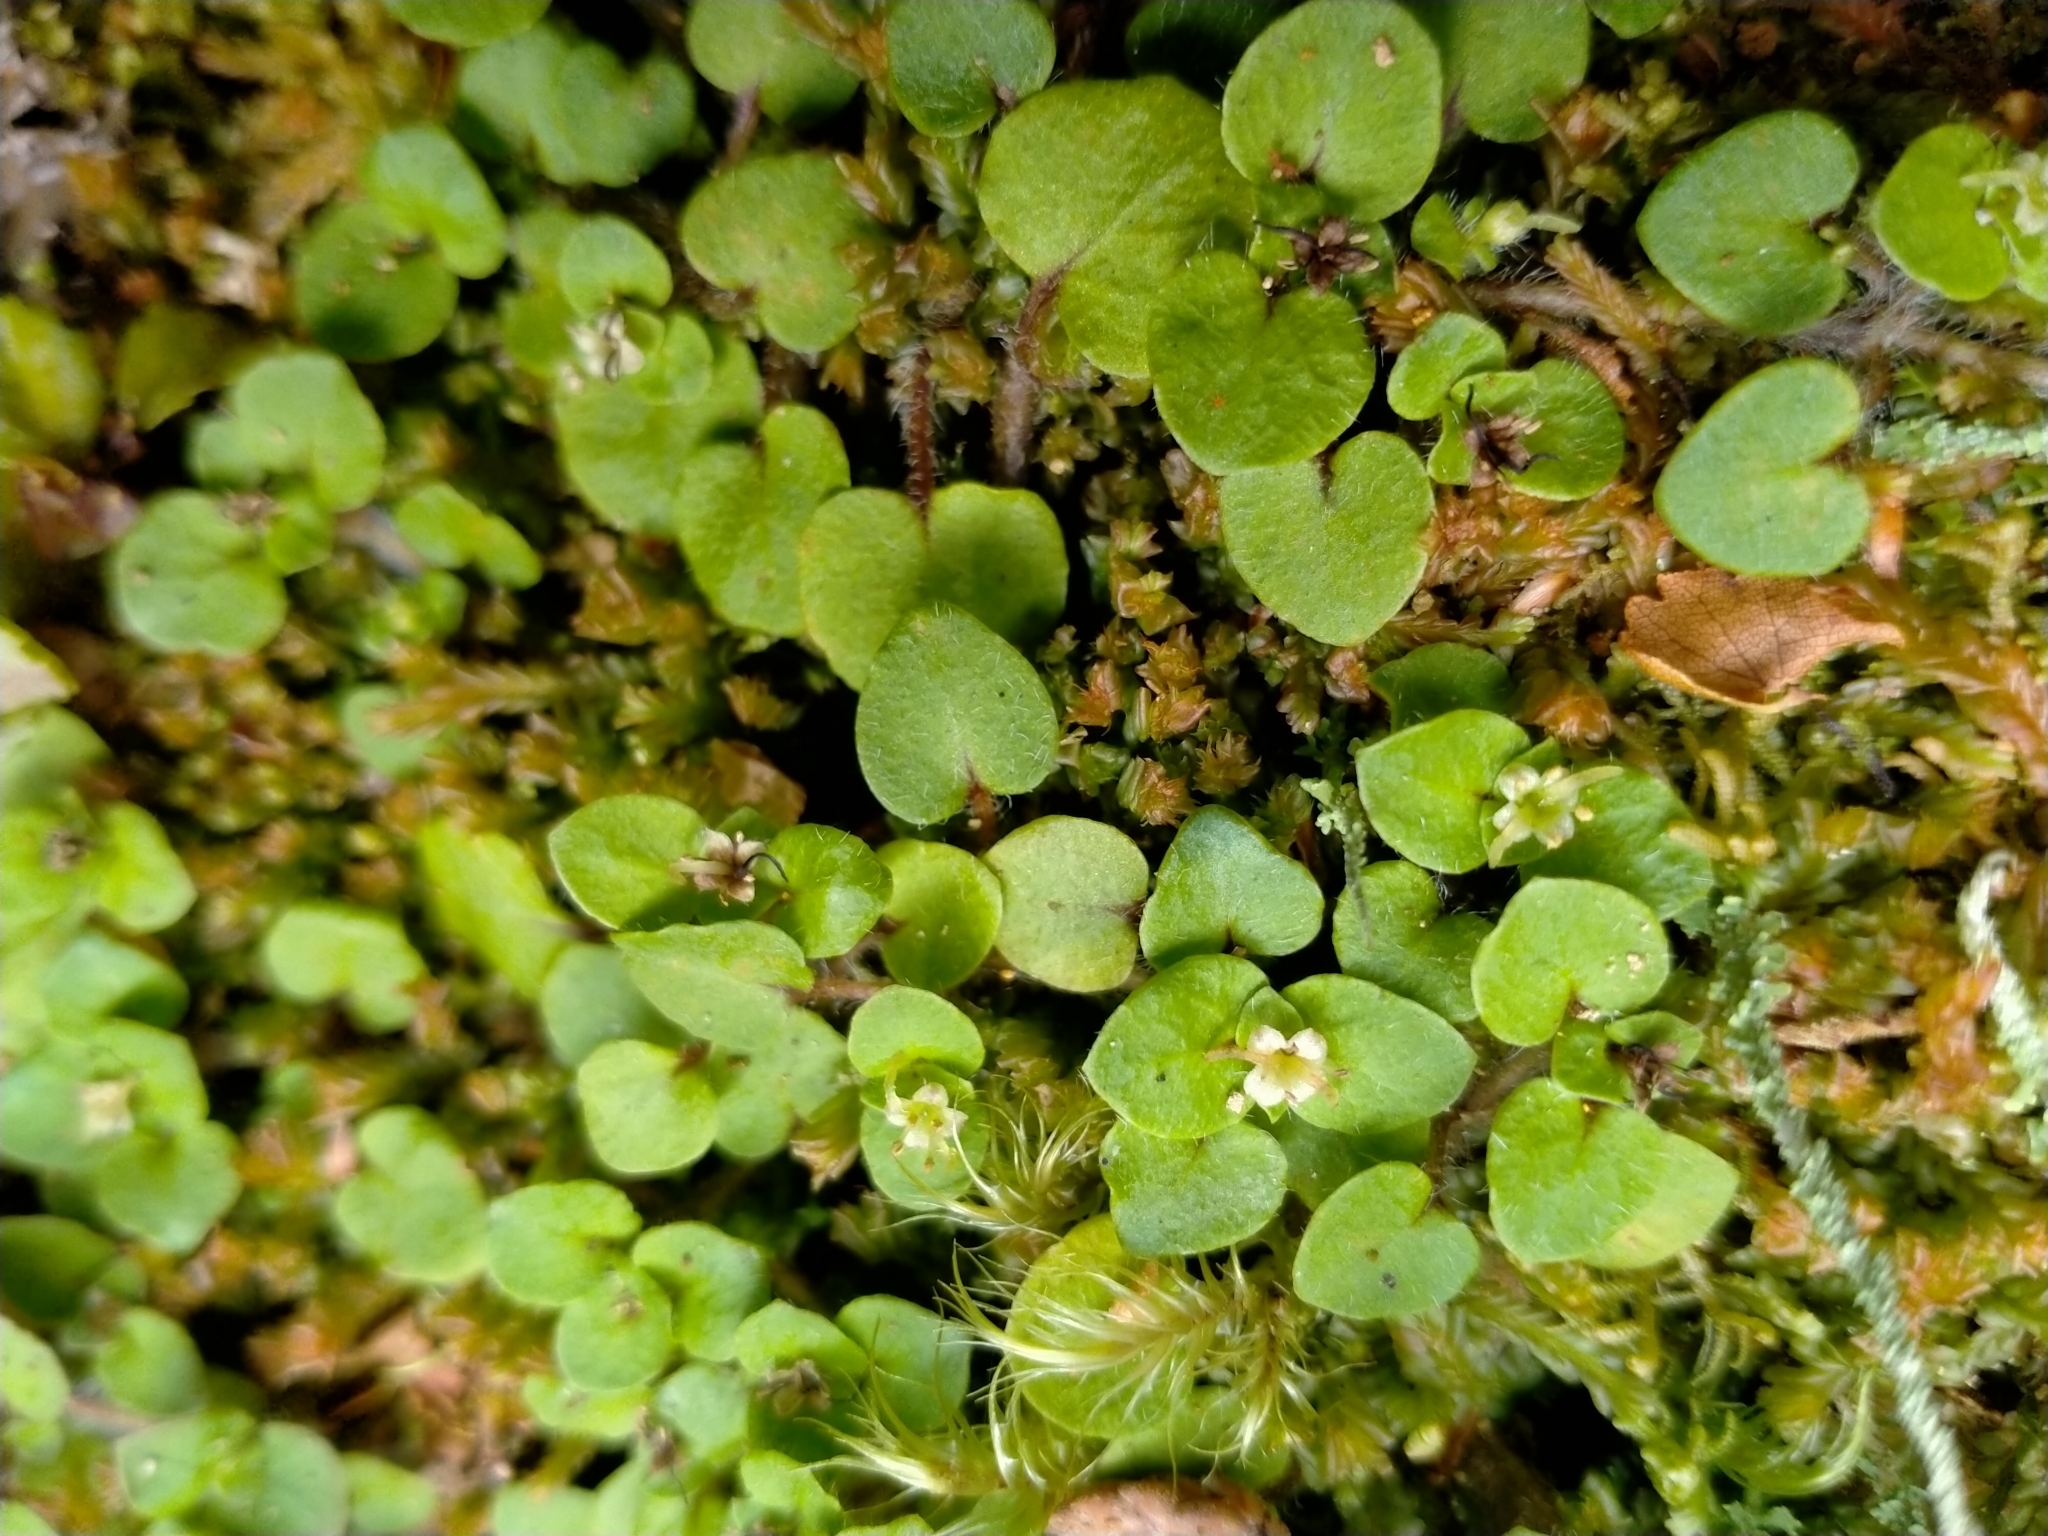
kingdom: Plantae
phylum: Tracheophyta
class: Magnoliopsida
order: Gentianales
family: Rubiaceae
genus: Nertera
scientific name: Nertera villosa
